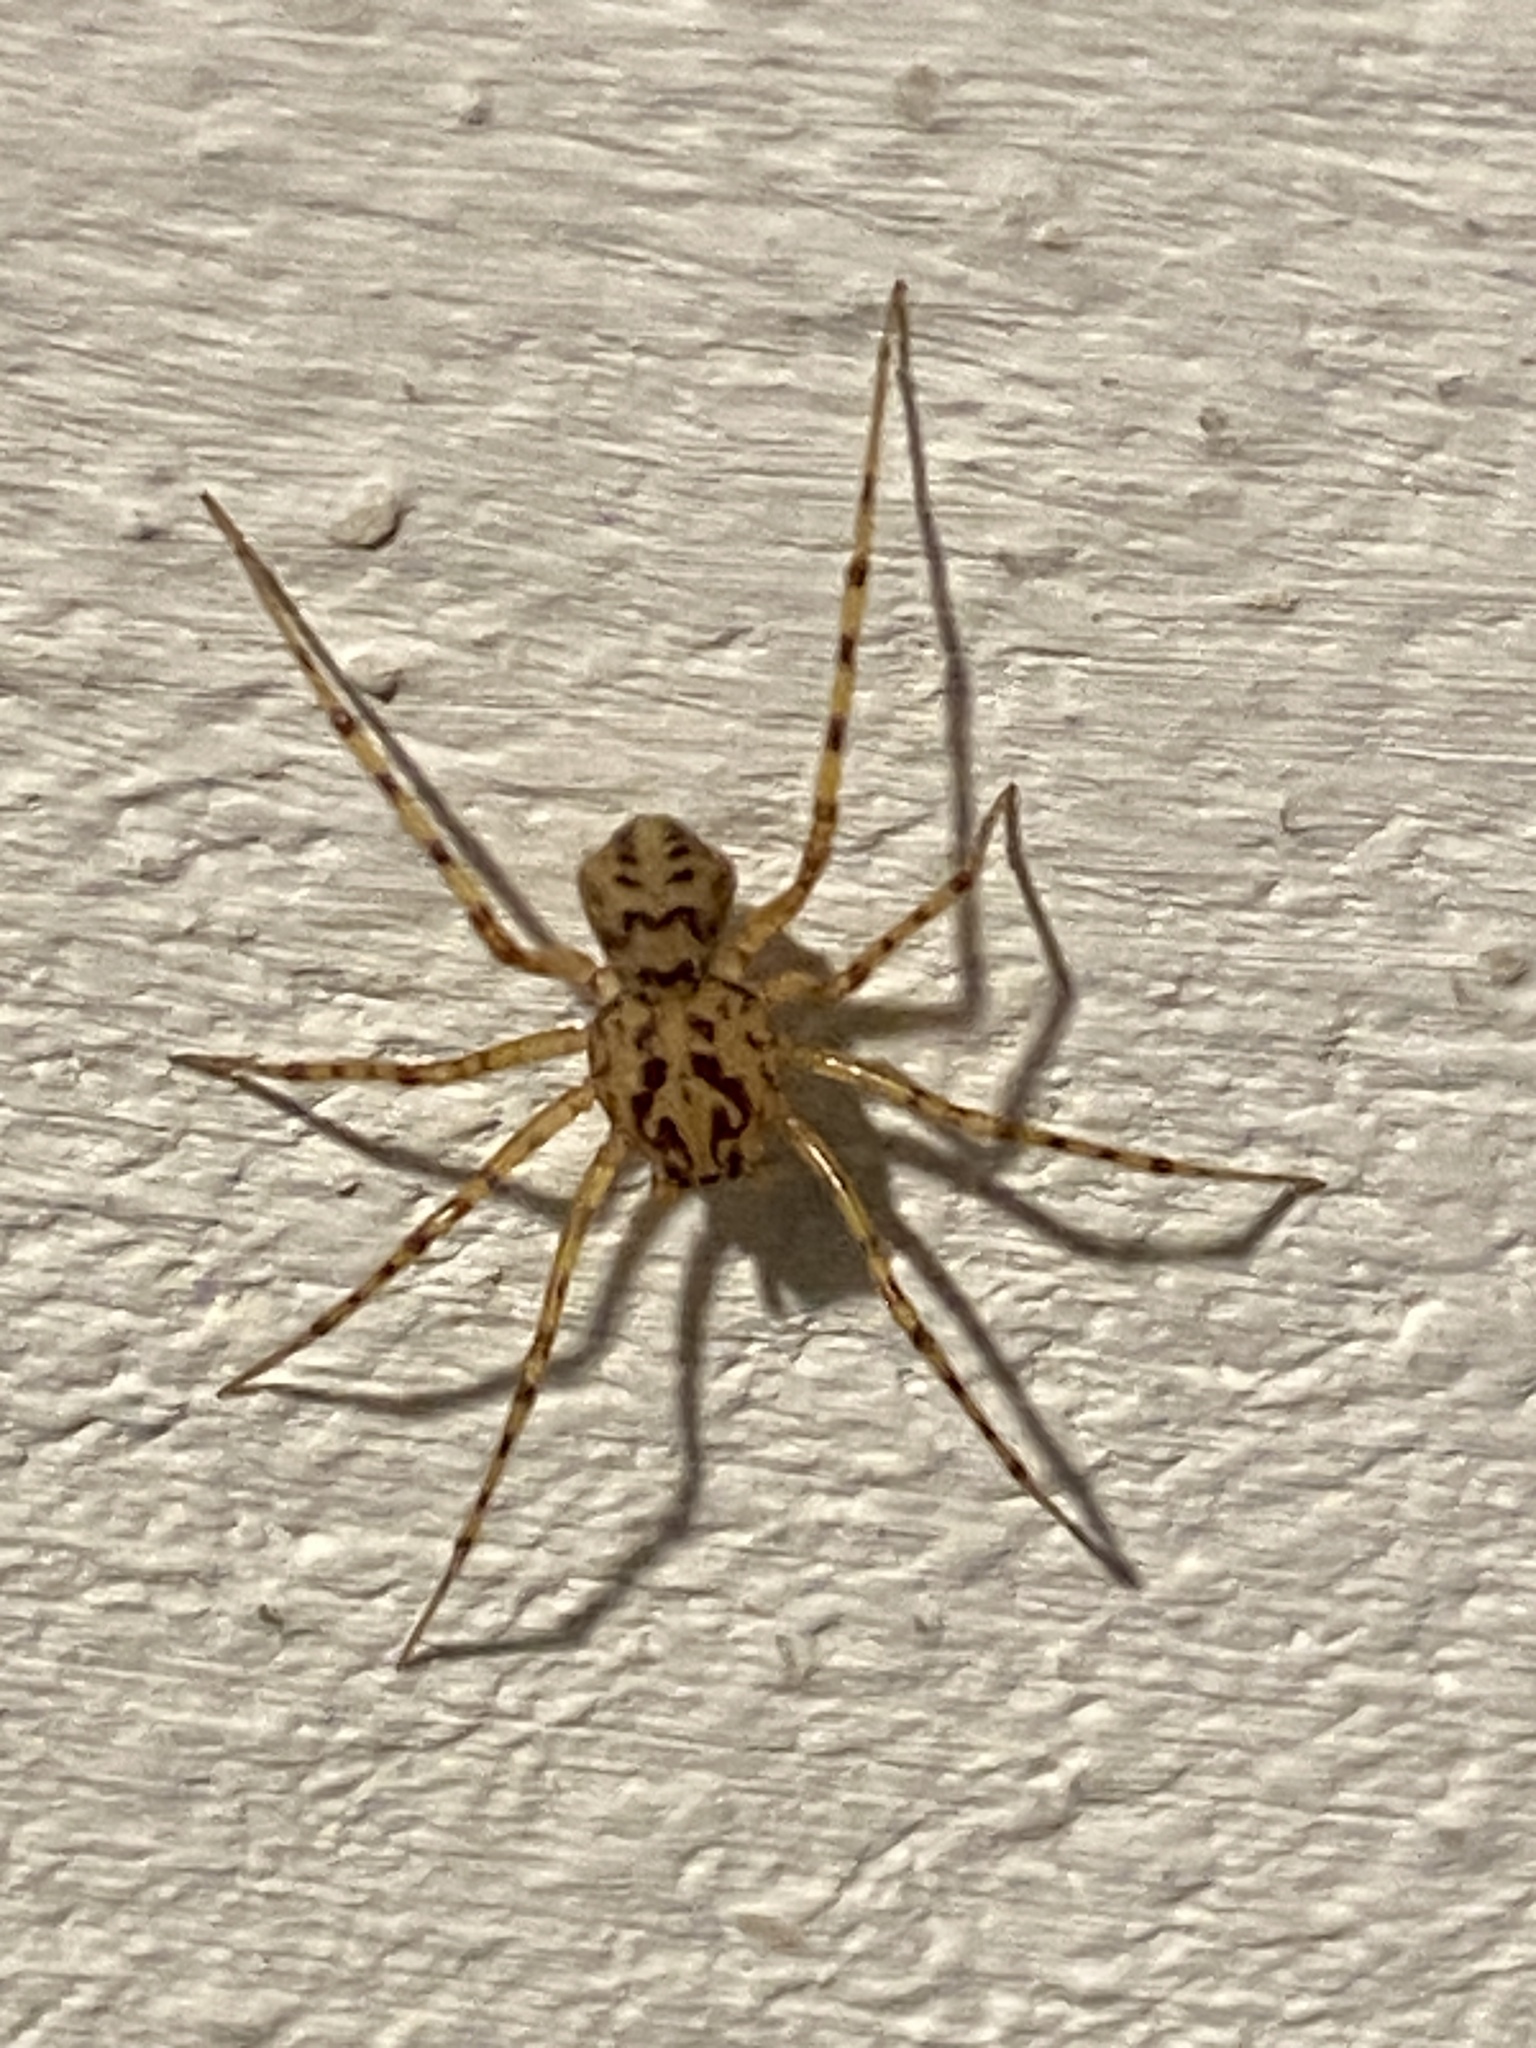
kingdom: Animalia
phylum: Arthropoda
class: Arachnida
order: Araneae
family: Scytodidae
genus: Scytodes
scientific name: Scytodes thoracica
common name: Spitting spider
